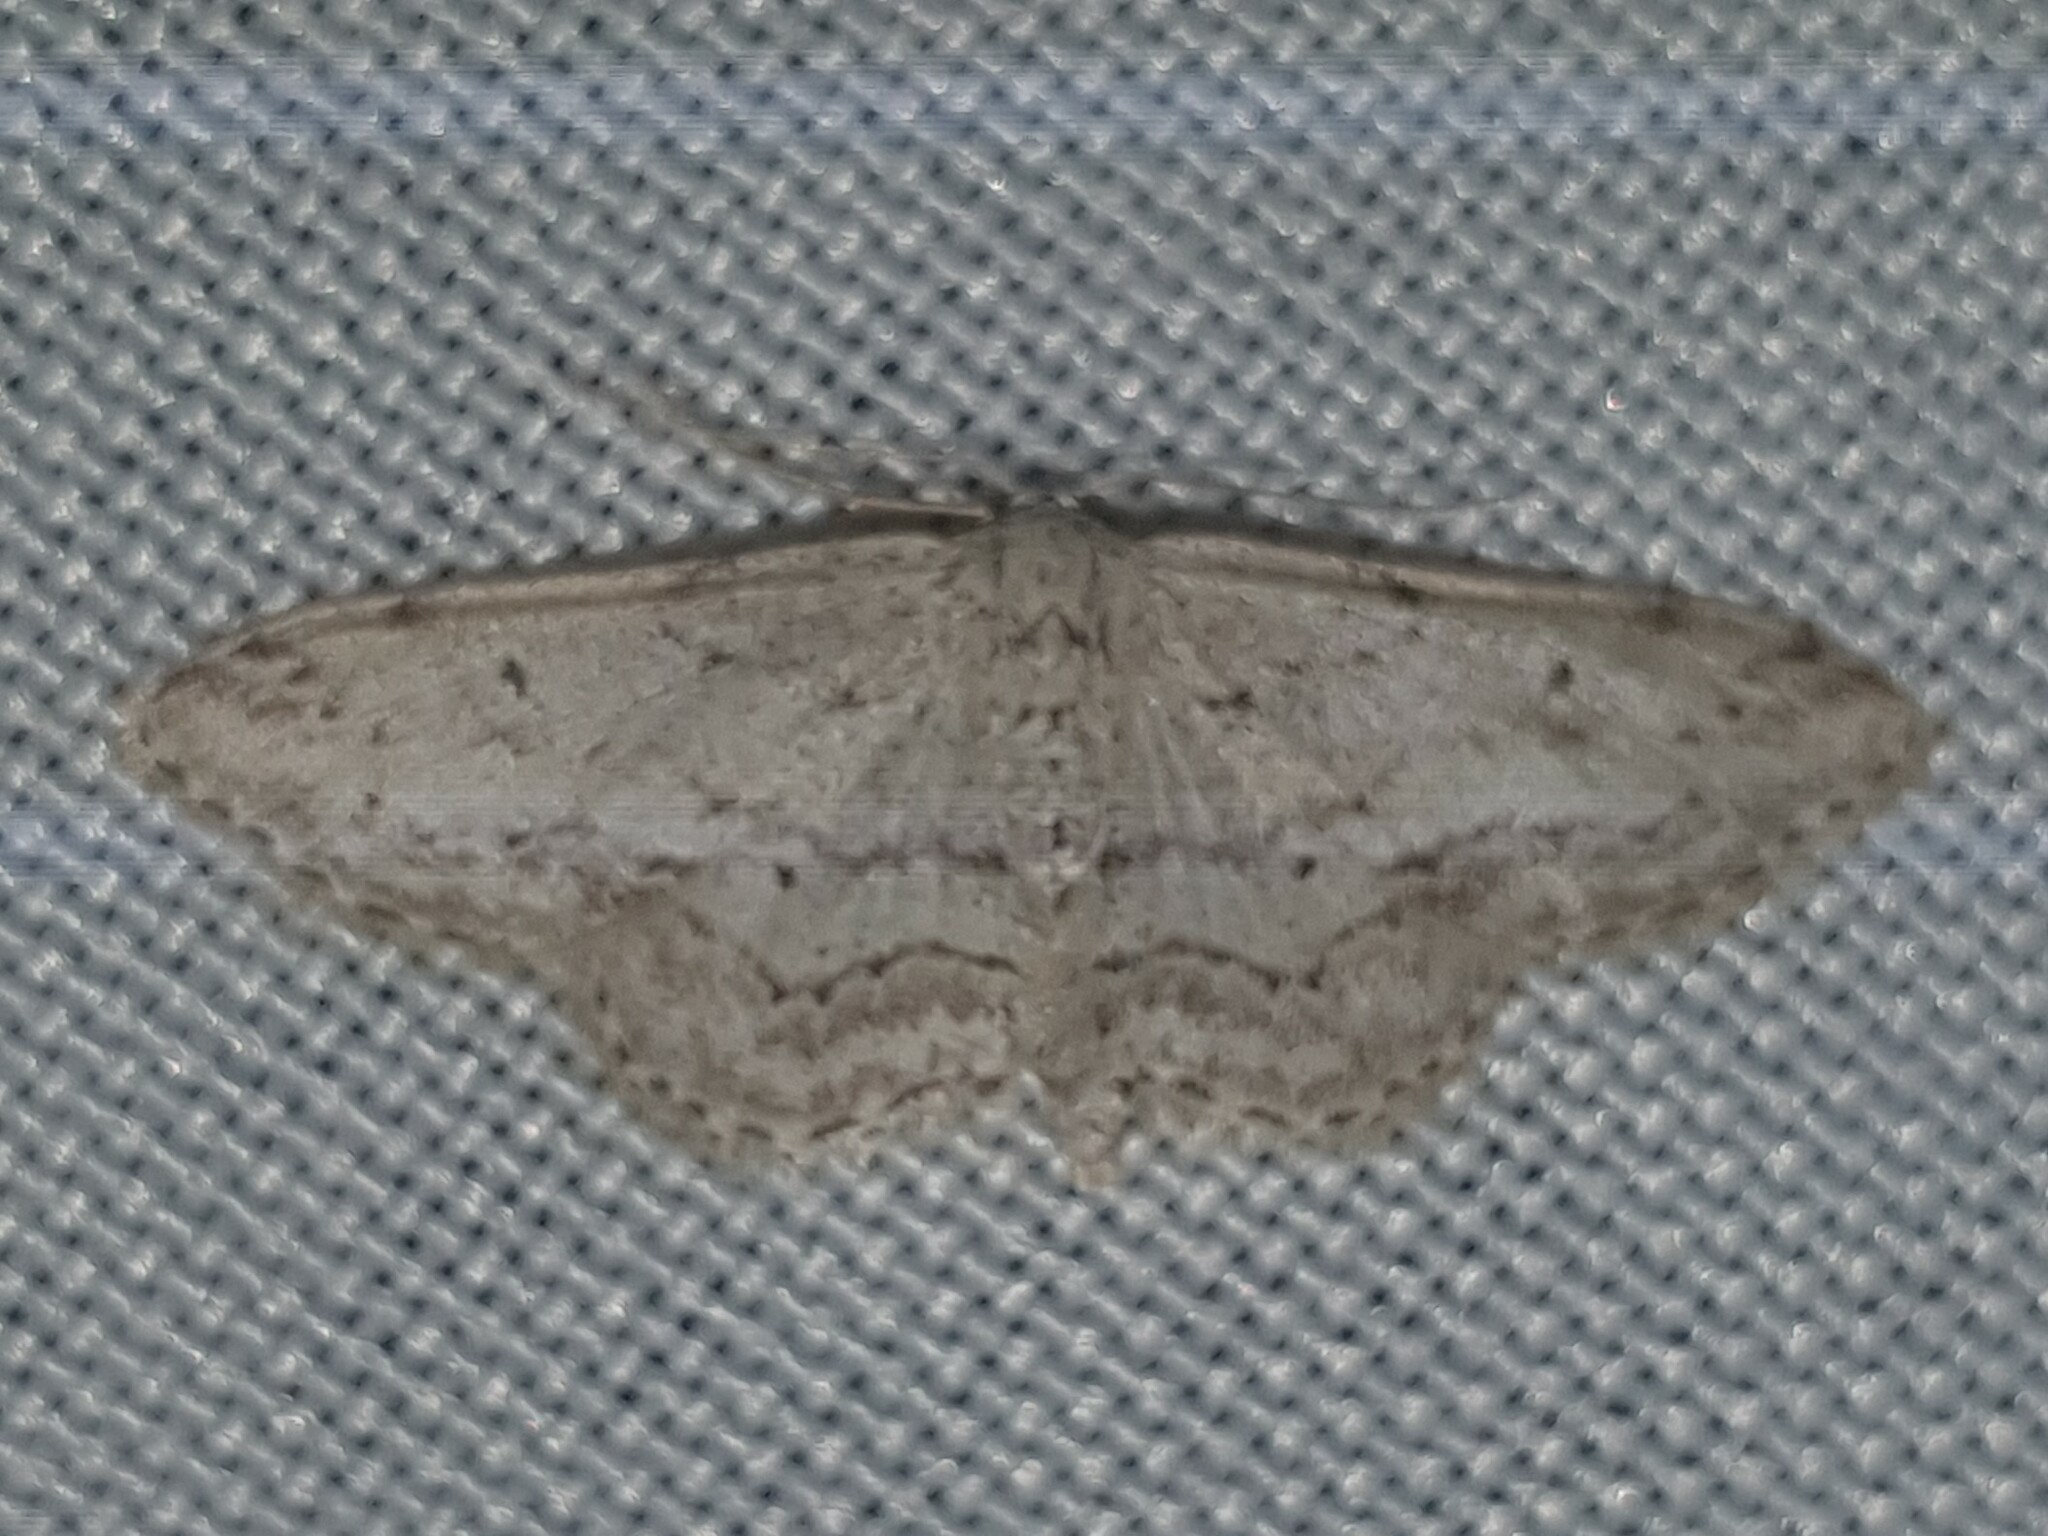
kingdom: Animalia
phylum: Arthropoda
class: Insecta
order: Lepidoptera
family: Geometridae
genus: Idaea
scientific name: Idaea seriata
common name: Small dusty wave
